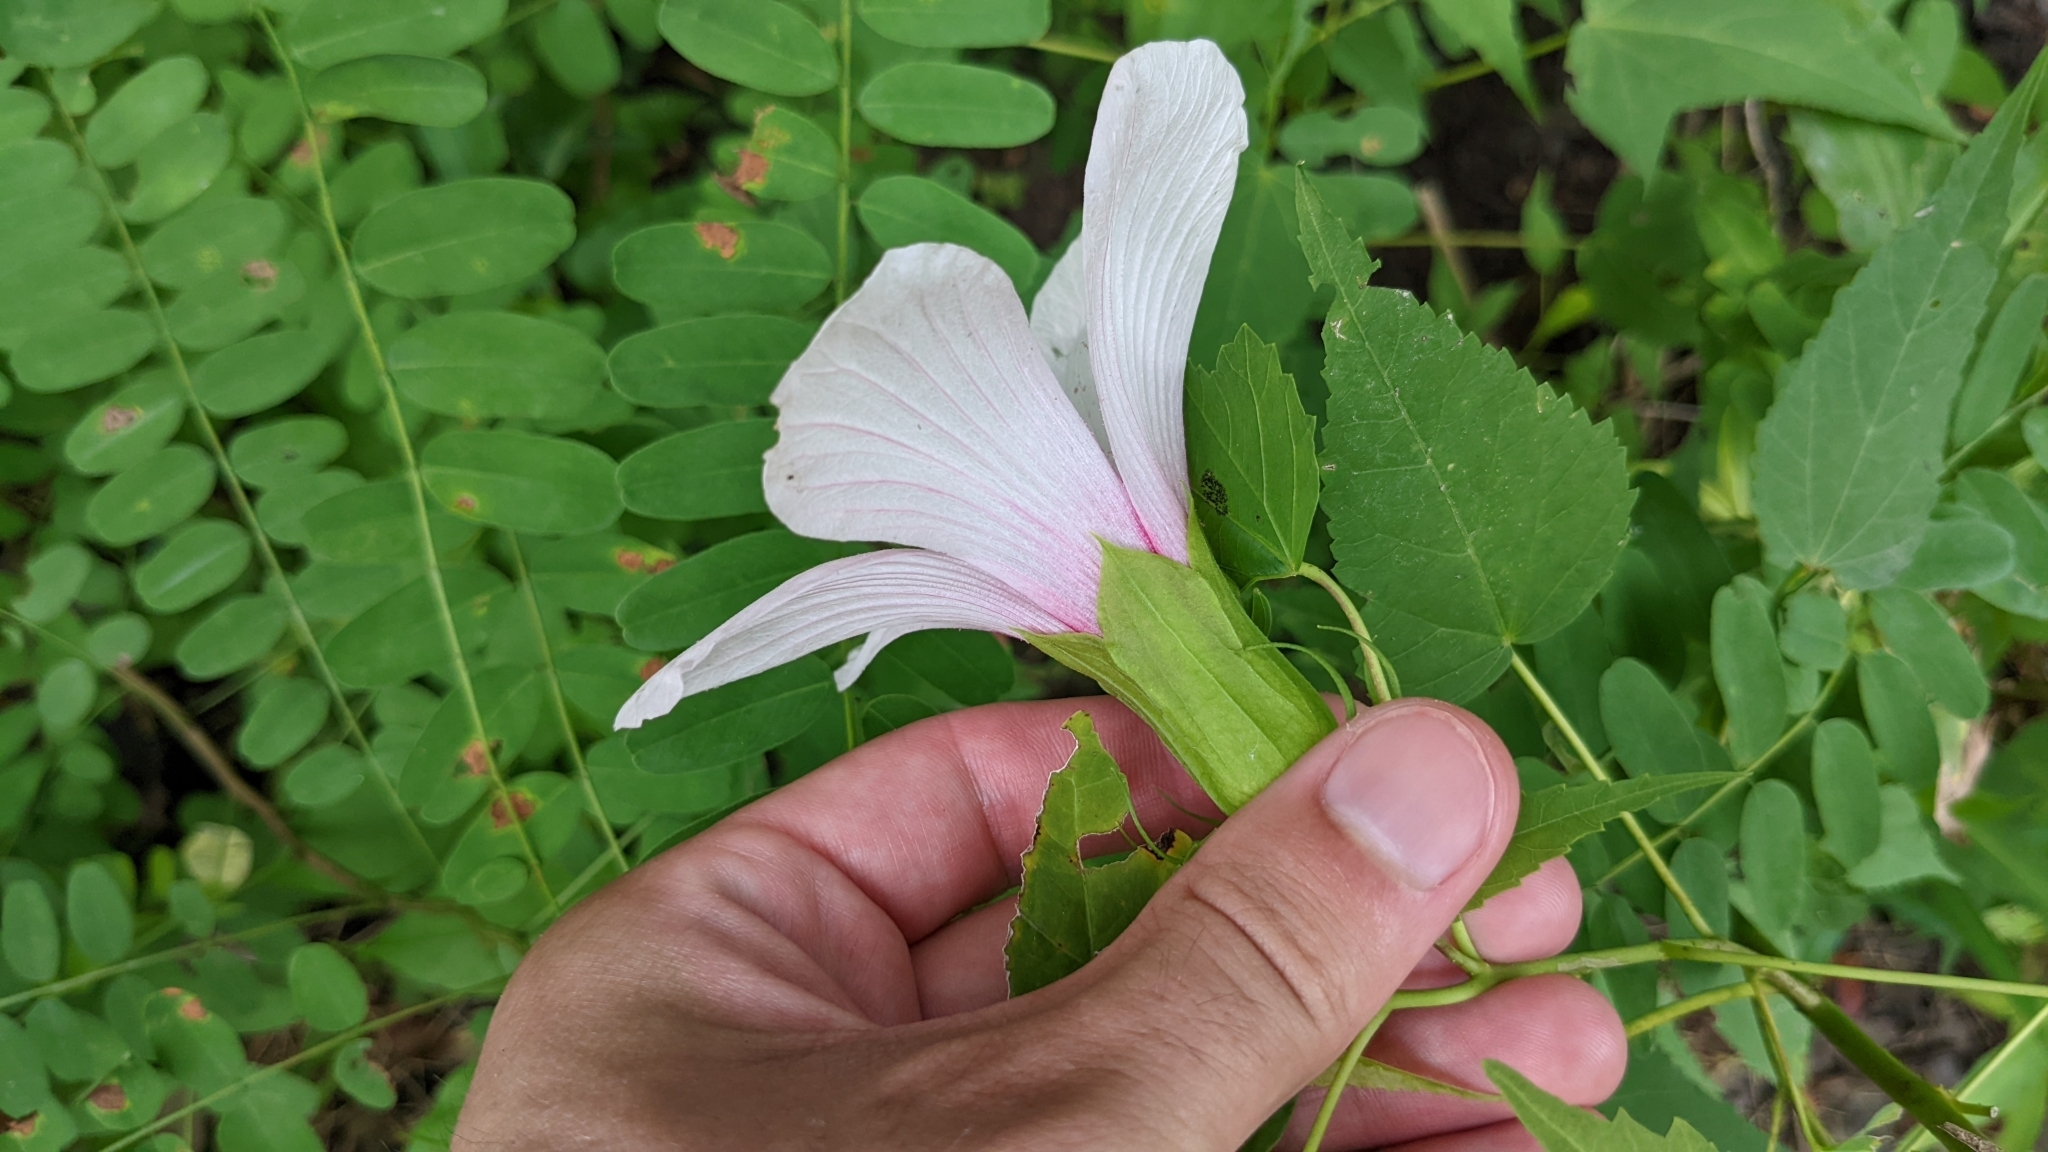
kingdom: Plantae
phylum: Tracheophyta
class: Magnoliopsida
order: Malvales
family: Malvaceae
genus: Hibiscus
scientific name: Hibiscus laevis
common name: Scarlet rose-mallow
